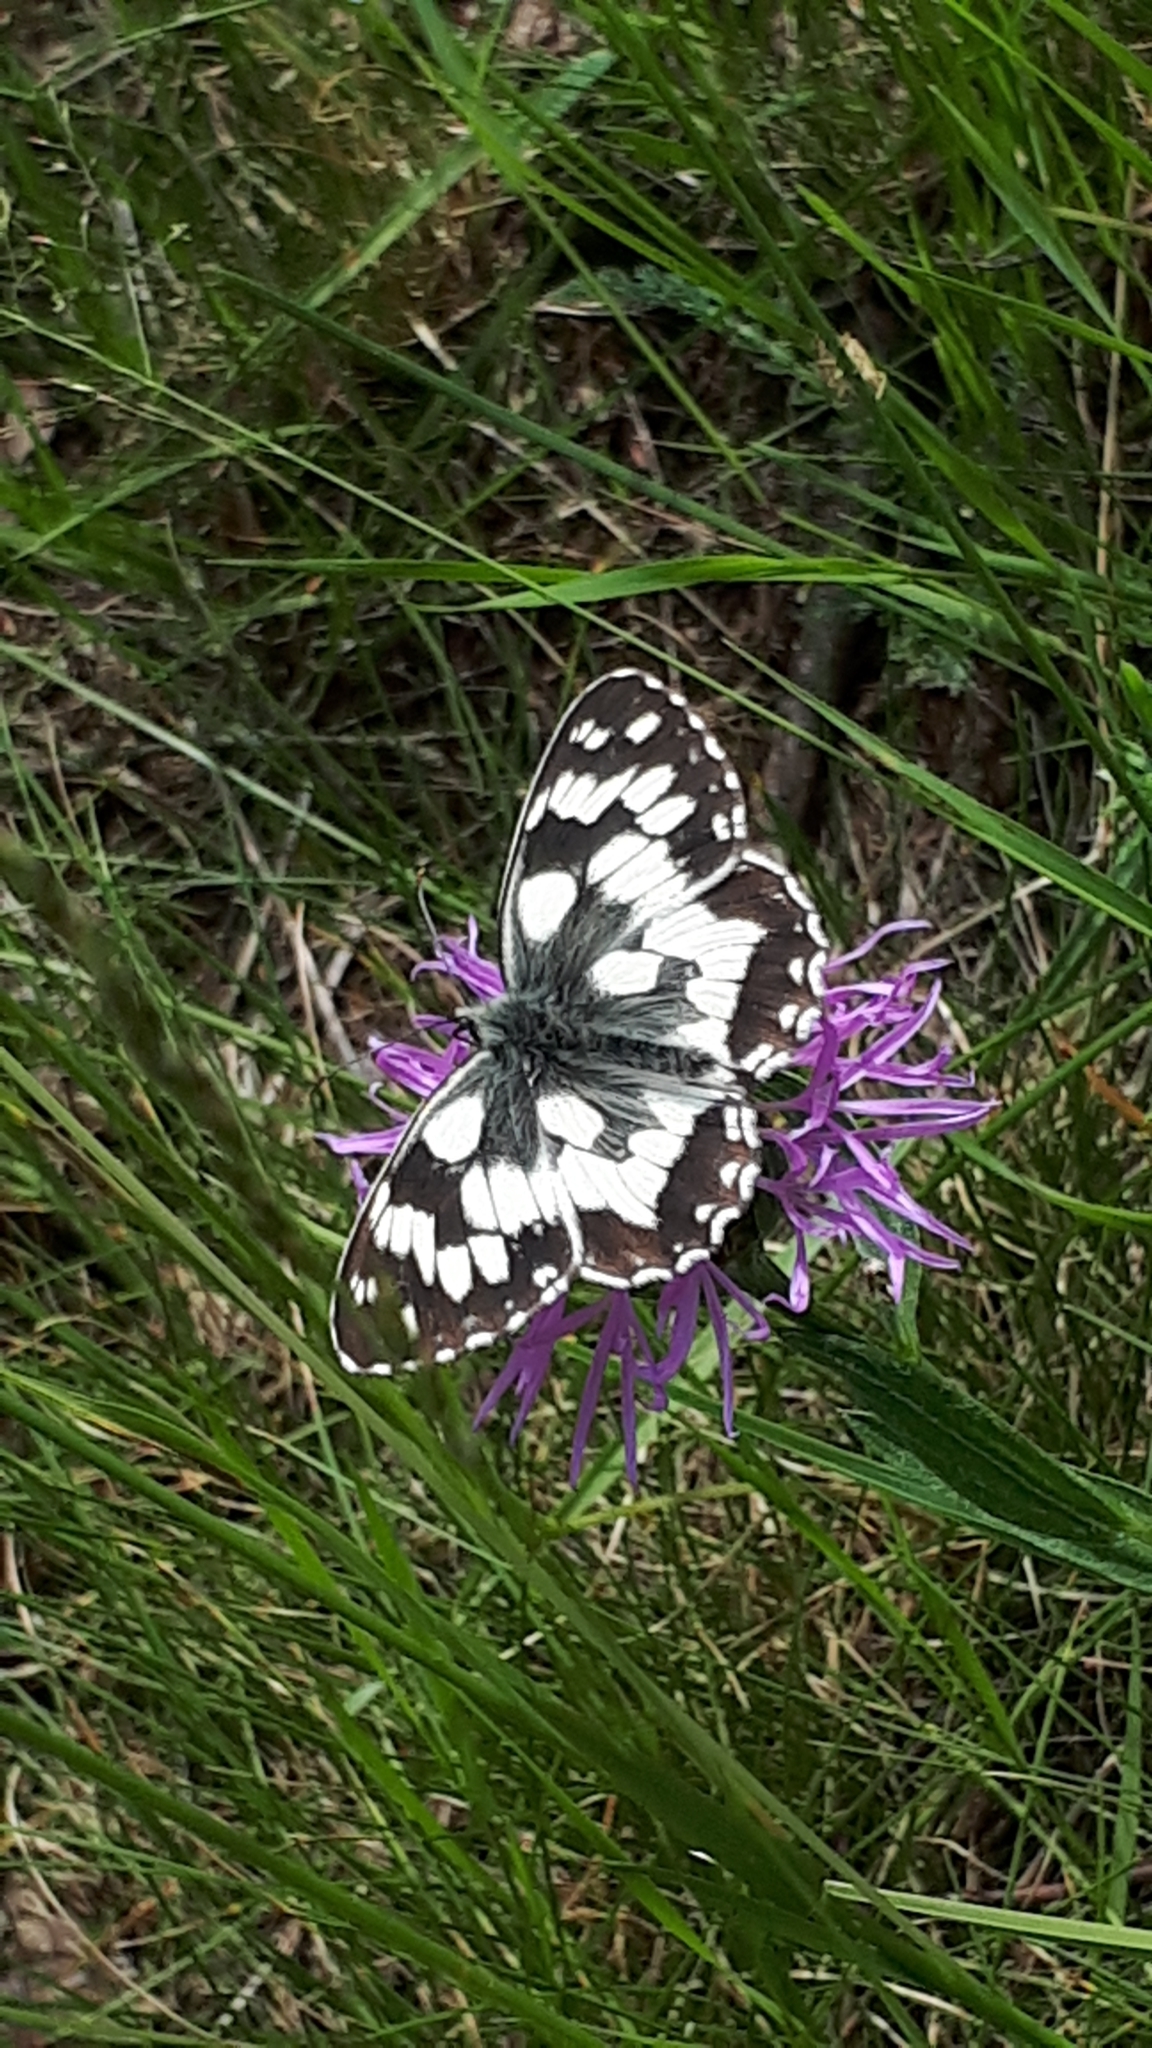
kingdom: Animalia
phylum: Arthropoda
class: Insecta
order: Lepidoptera
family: Nymphalidae
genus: Melanargia
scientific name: Melanargia galathea
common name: Marbled white
